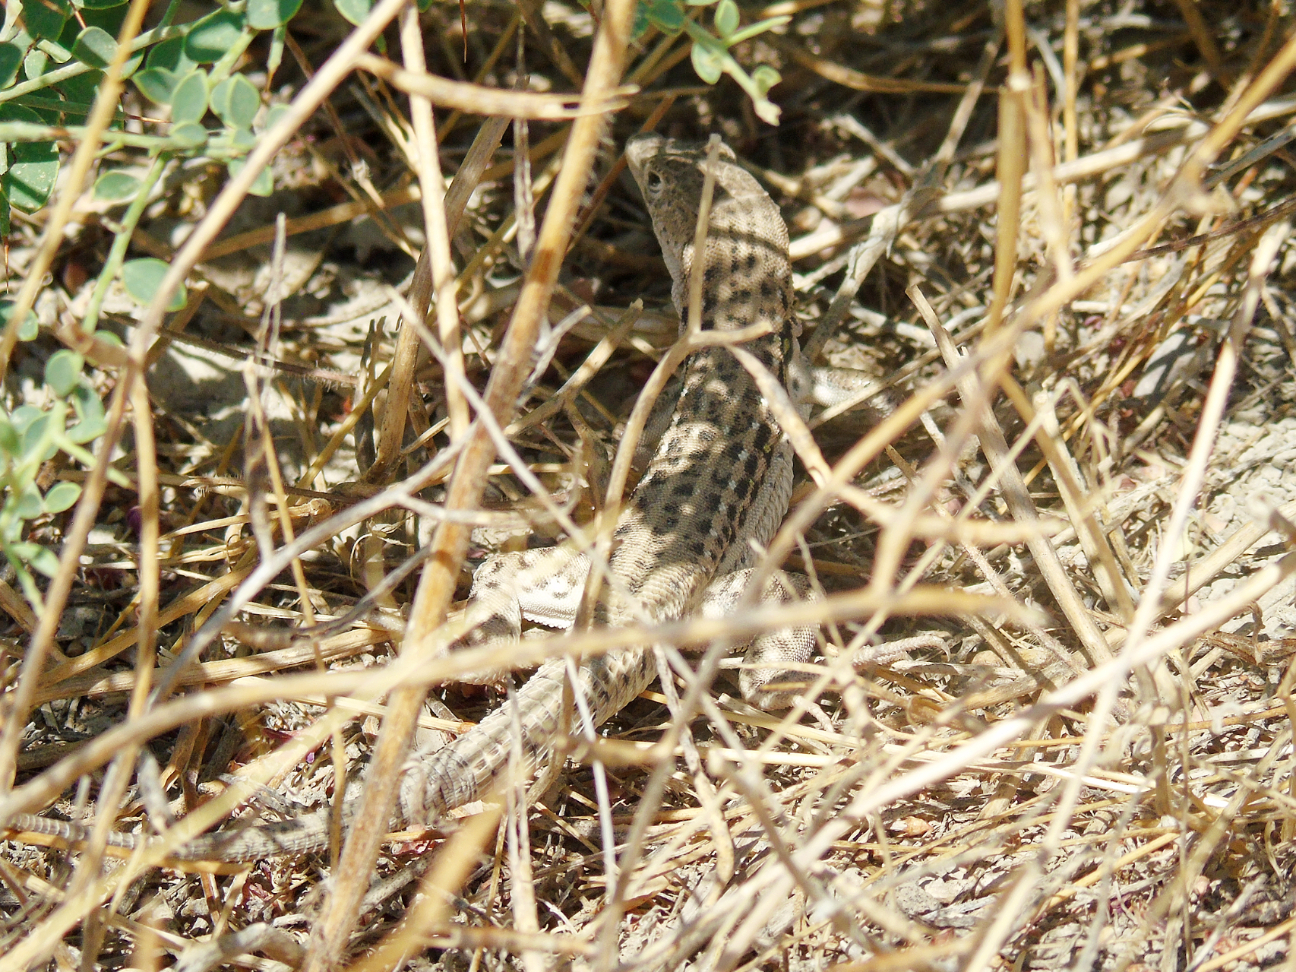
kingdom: Animalia
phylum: Chordata
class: Squamata
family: Lacertidae
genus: Eremias
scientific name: Eremias velox
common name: Central asian racerunner
